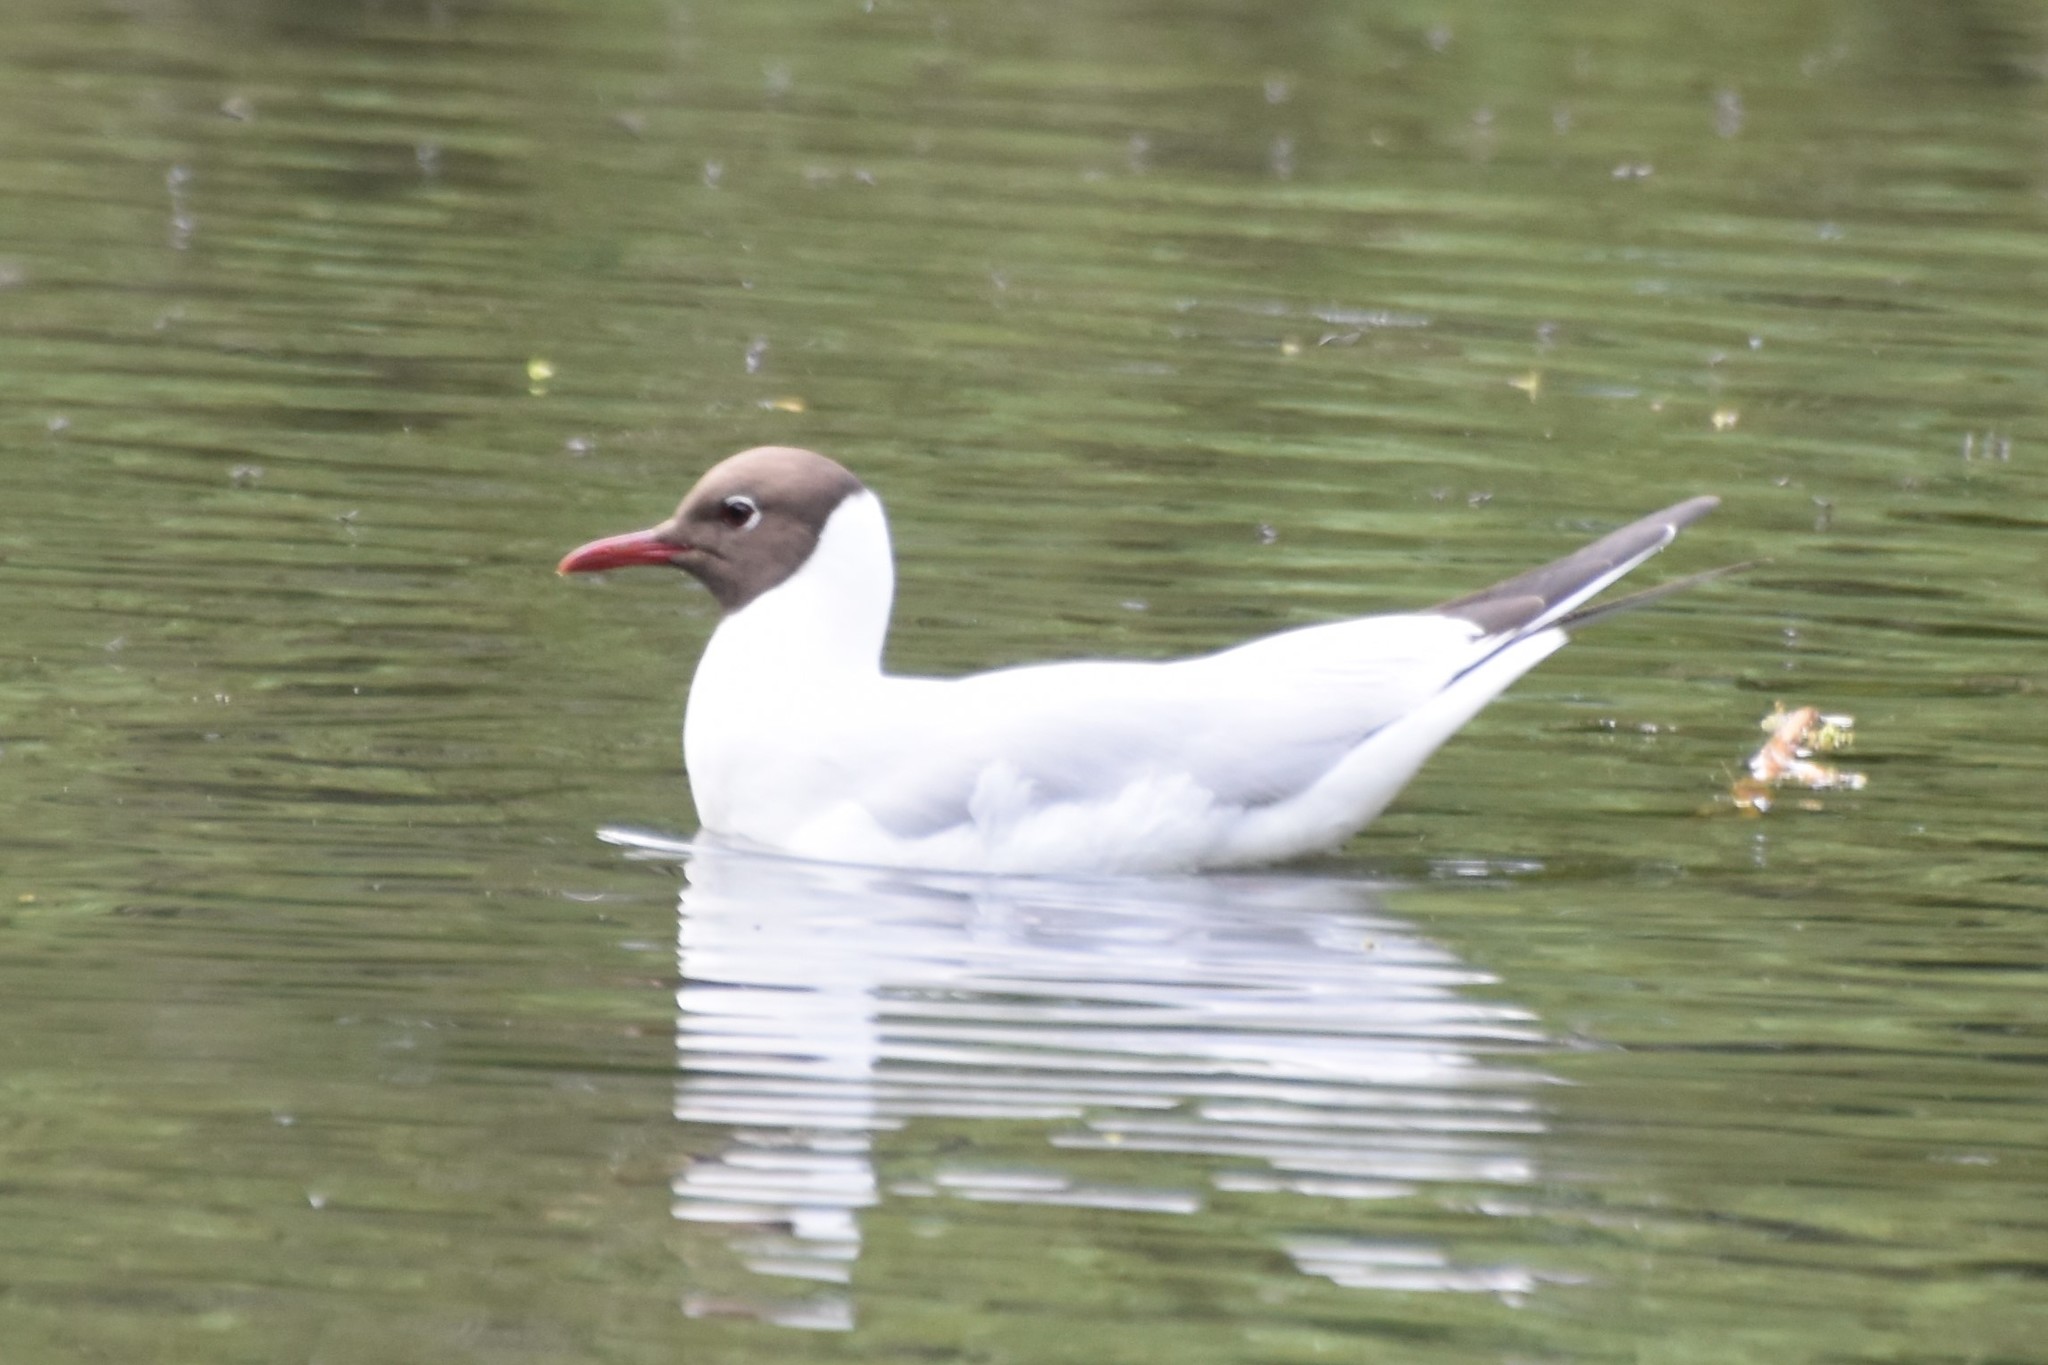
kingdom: Animalia
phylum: Chordata
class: Aves
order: Charadriiformes
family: Laridae
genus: Chroicocephalus
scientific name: Chroicocephalus ridibundus
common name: Black-headed gull
